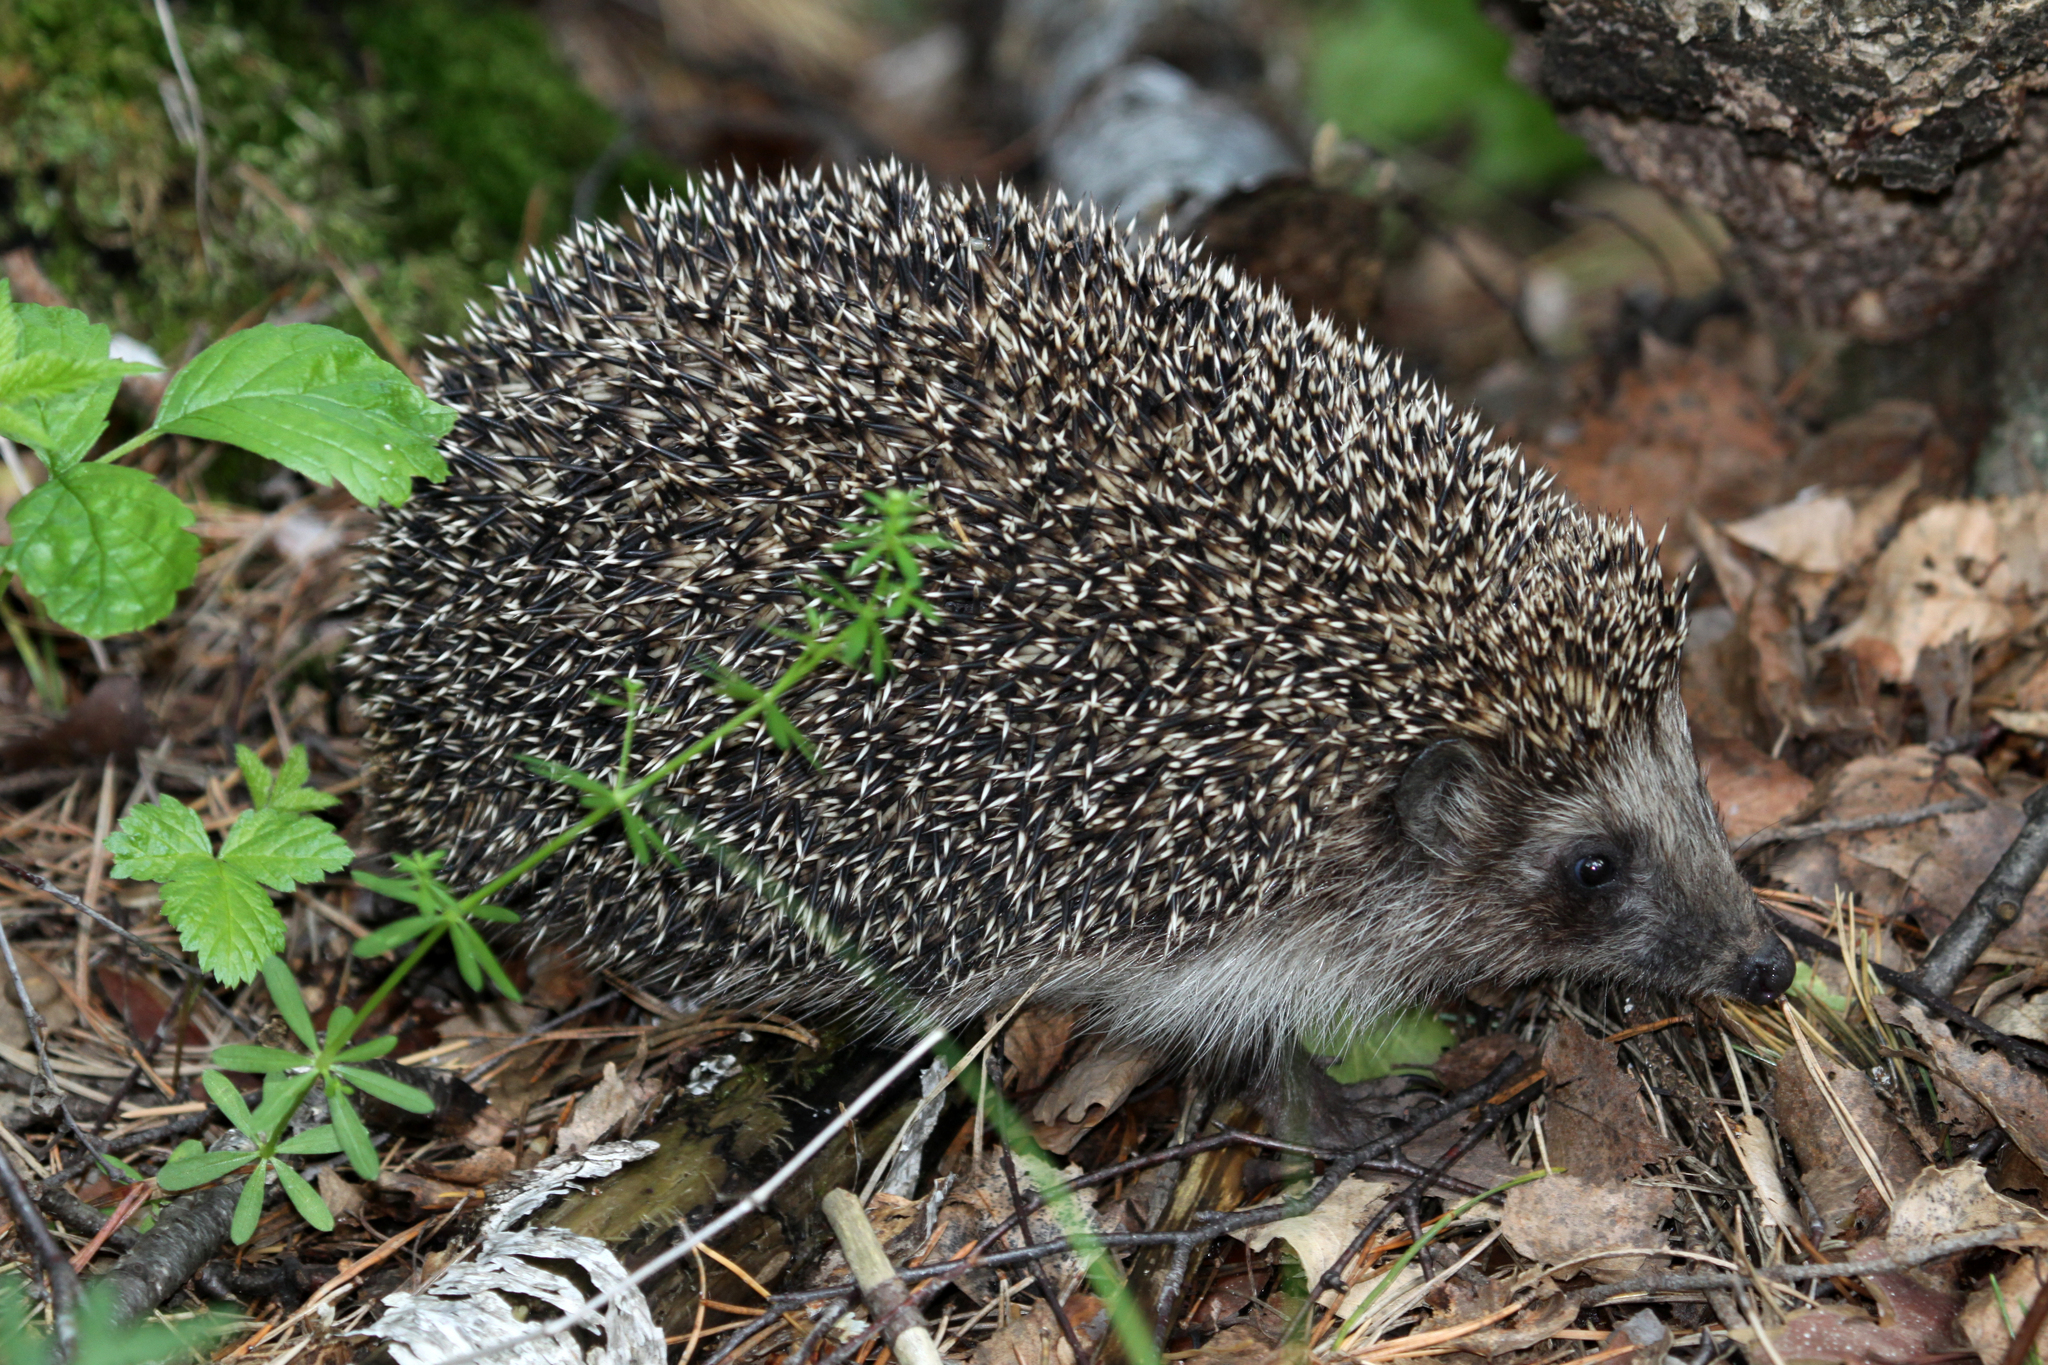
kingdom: Animalia
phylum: Chordata
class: Mammalia
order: Erinaceomorpha
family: Erinaceidae
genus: Erinaceus
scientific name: Erinaceus roumanicus
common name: Northern white-breasted hedgehog
